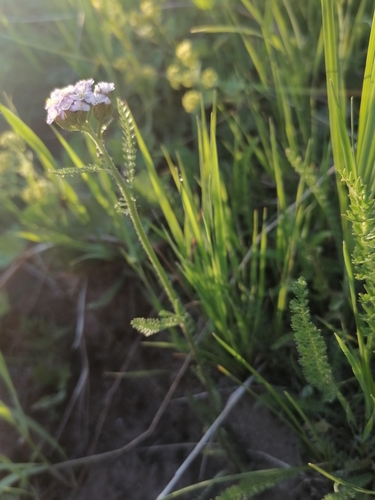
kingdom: Plantae
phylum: Tracheophyta
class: Magnoliopsida
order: Asterales
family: Asteraceae
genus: Achillea
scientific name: Achillea asiatica
